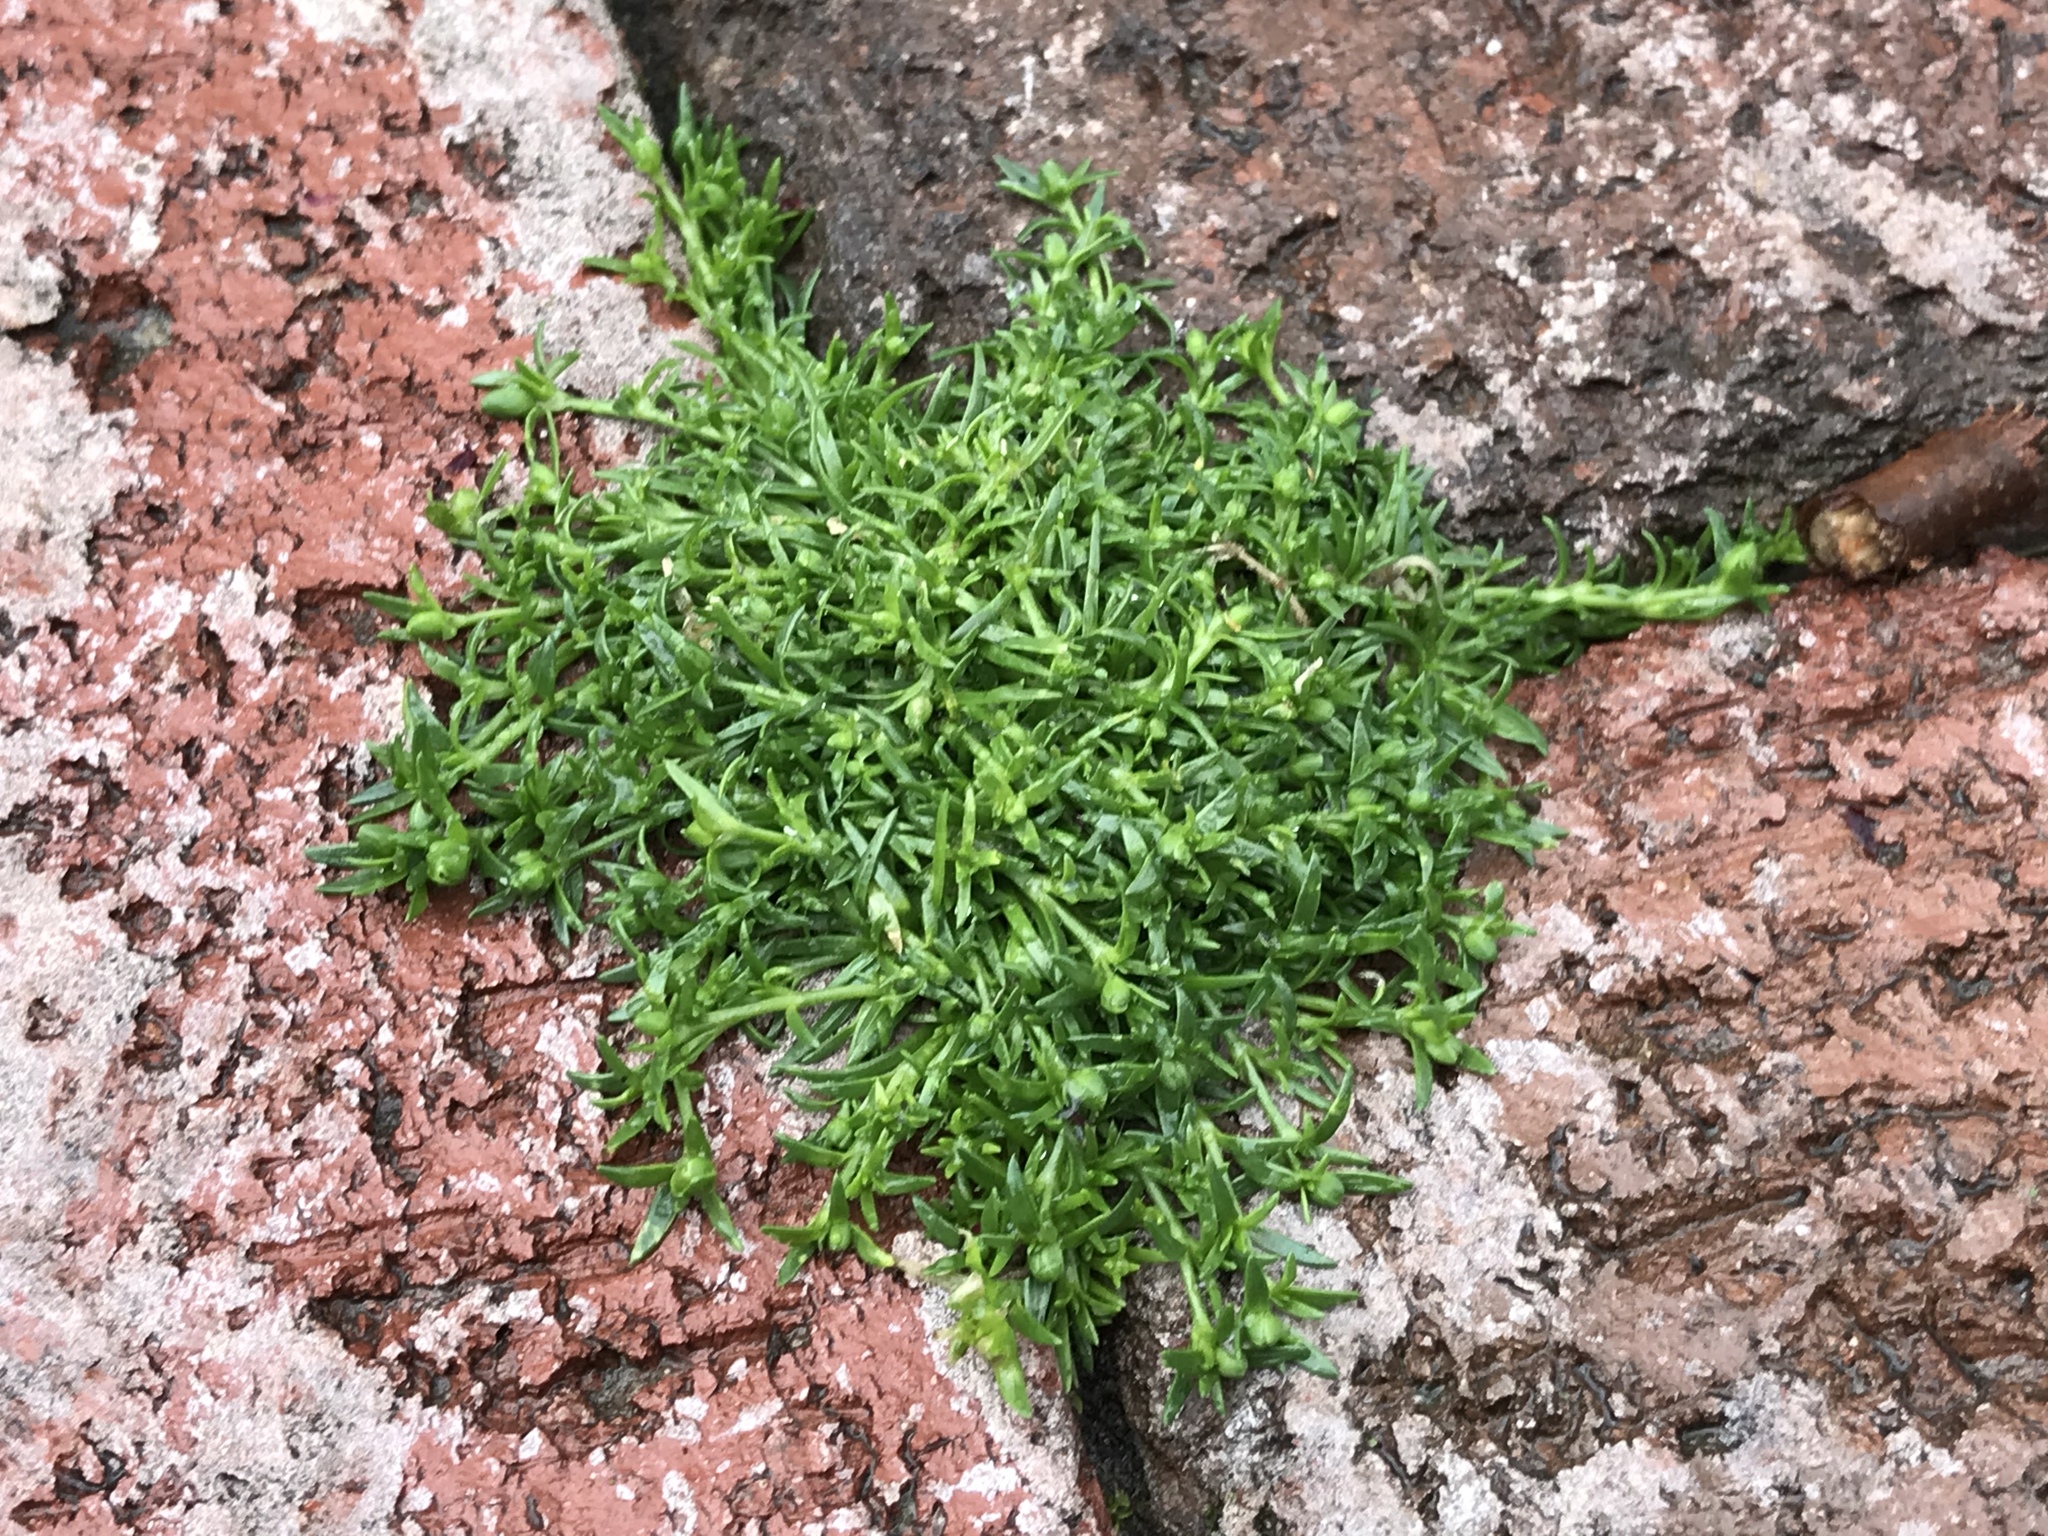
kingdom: Plantae
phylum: Tracheophyta
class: Magnoliopsida
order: Caryophyllales
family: Caryophyllaceae
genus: Sagina
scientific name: Sagina procumbens
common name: Procumbent pearlwort
